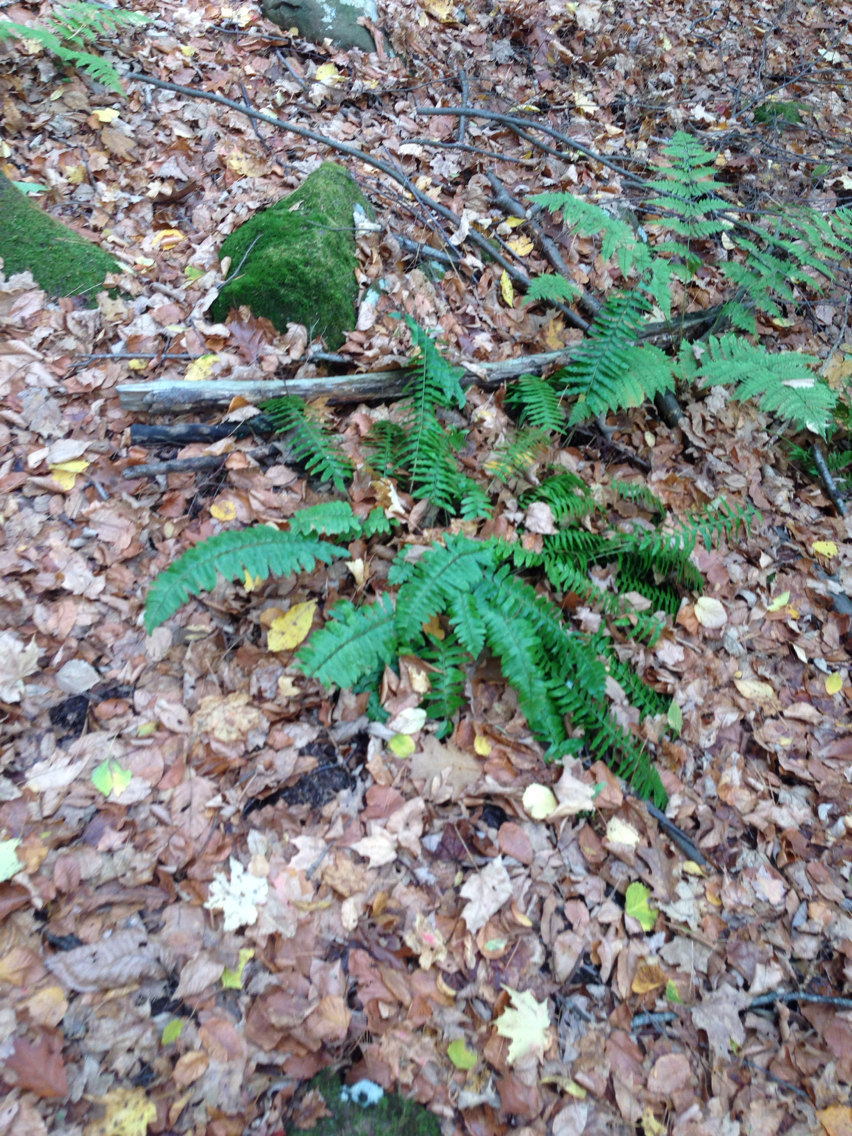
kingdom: Plantae
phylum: Tracheophyta
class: Polypodiopsida
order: Polypodiales
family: Dryopteridaceae
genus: Polystichum
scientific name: Polystichum acrostichoides
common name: Christmas fern
